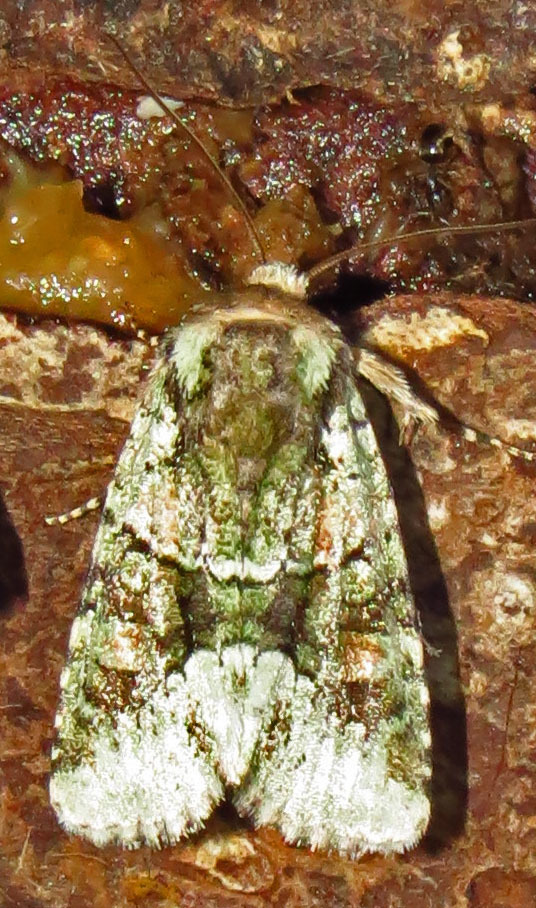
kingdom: Animalia
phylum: Arthropoda
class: Insecta
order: Lepidoptera
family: Noctuidae
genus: Lacinipolia
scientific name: Lacinipolia explicata
